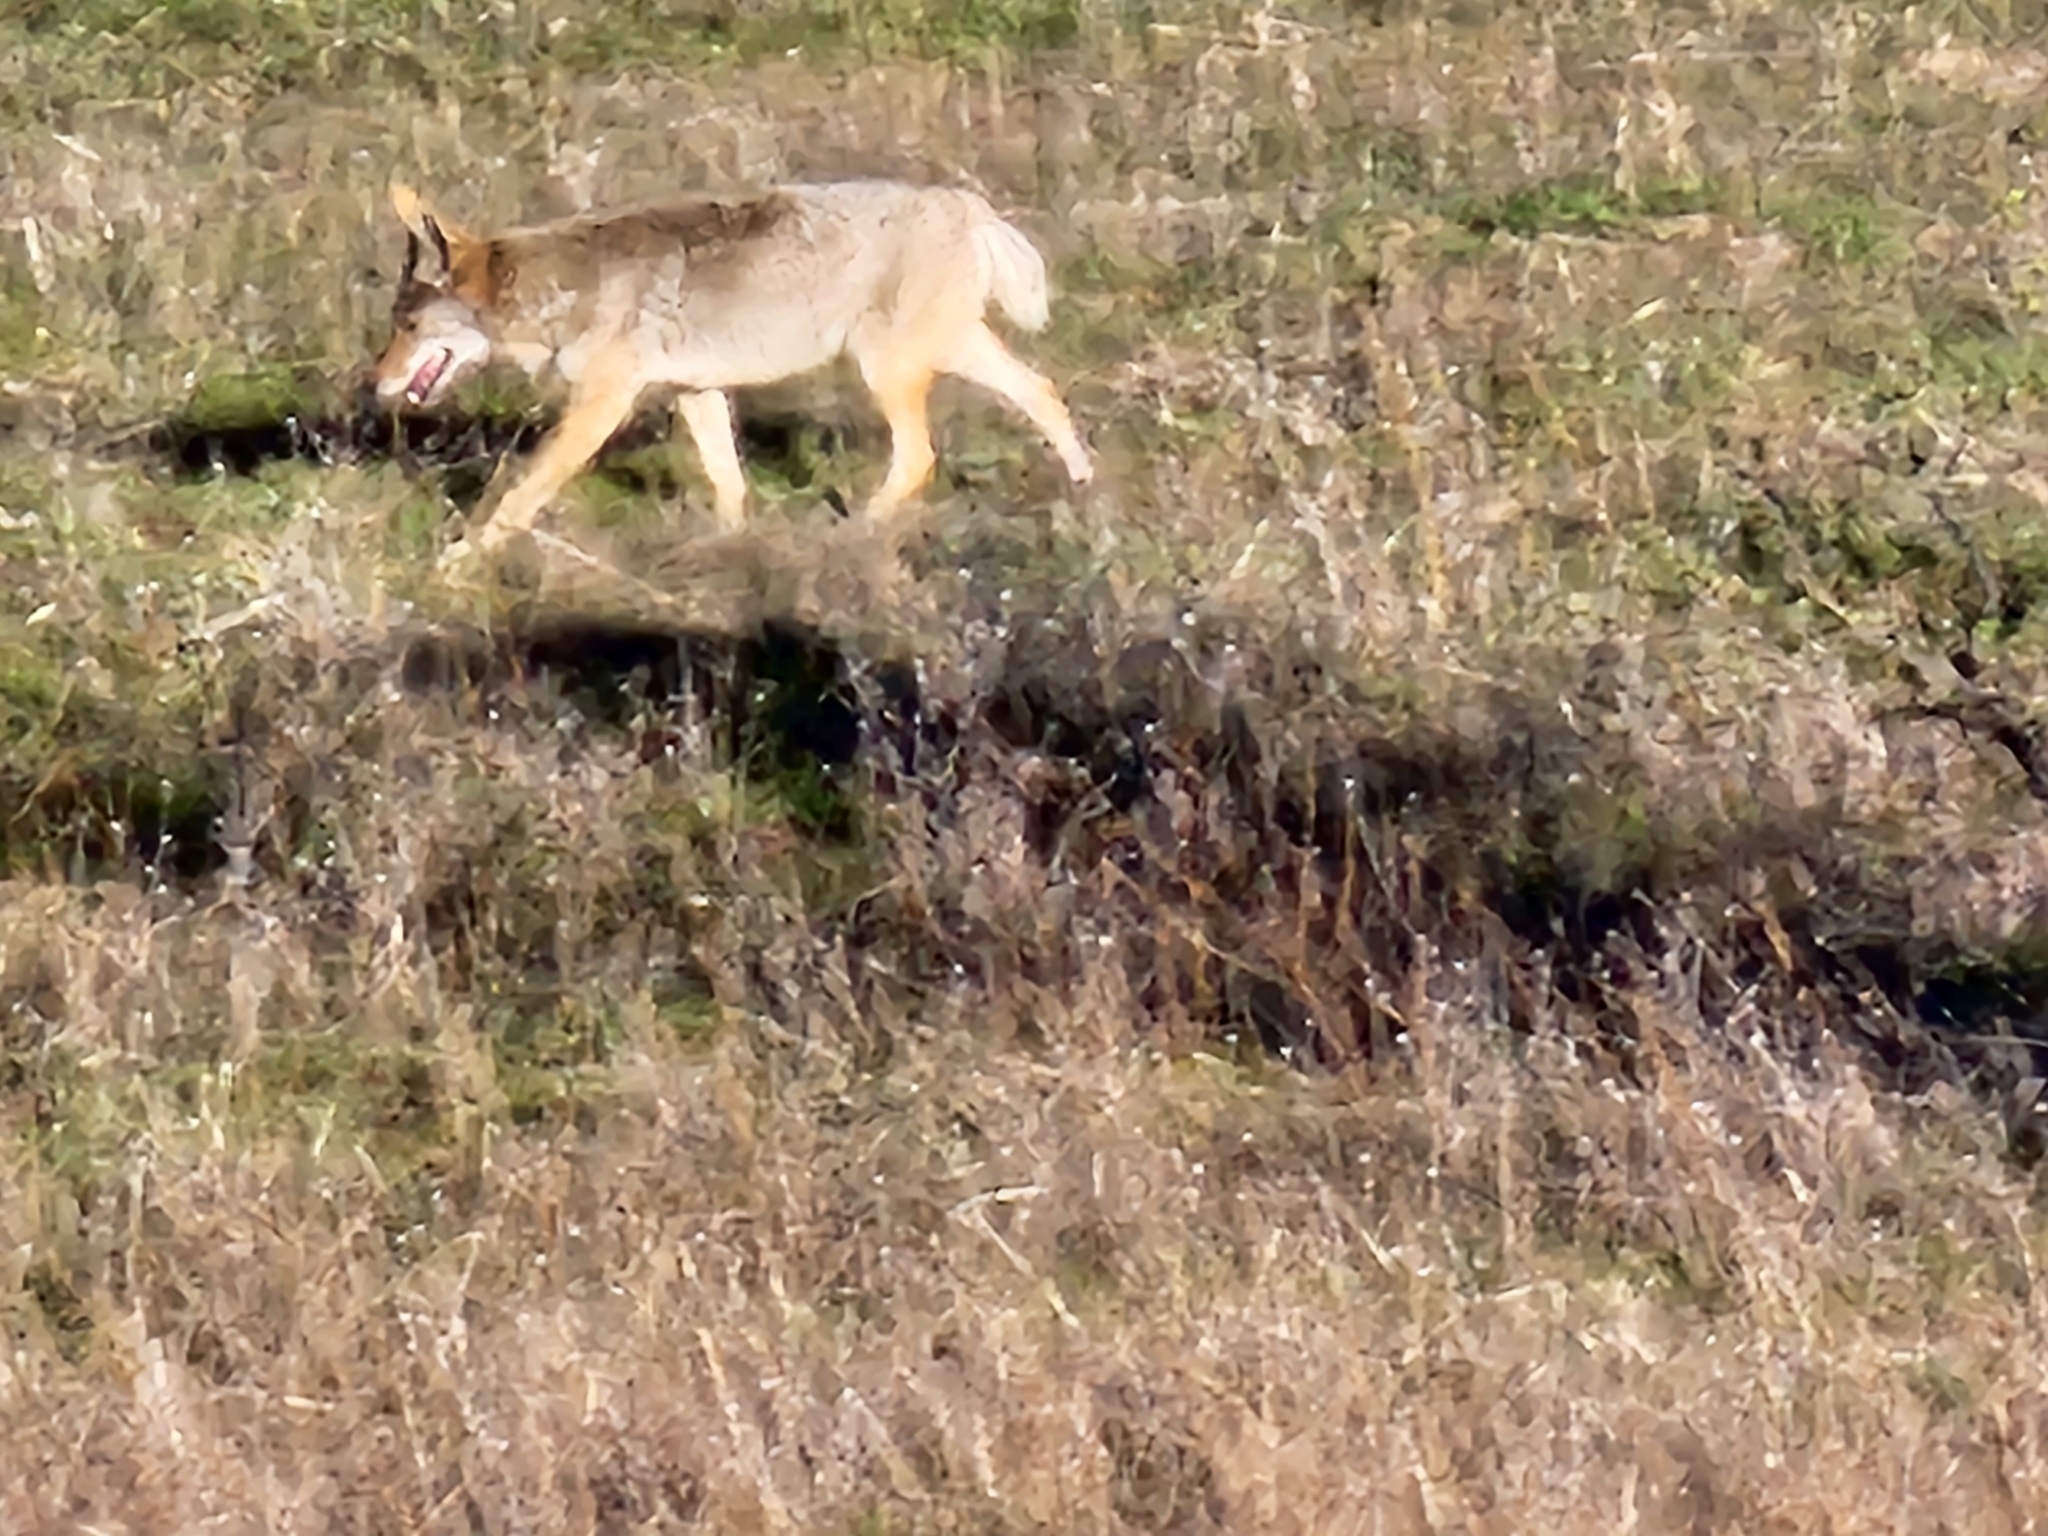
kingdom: Animalia
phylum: Chordata
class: Mammalia
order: Carnivora
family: Canidae
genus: Canis
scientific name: Canis latrans
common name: Coyote
